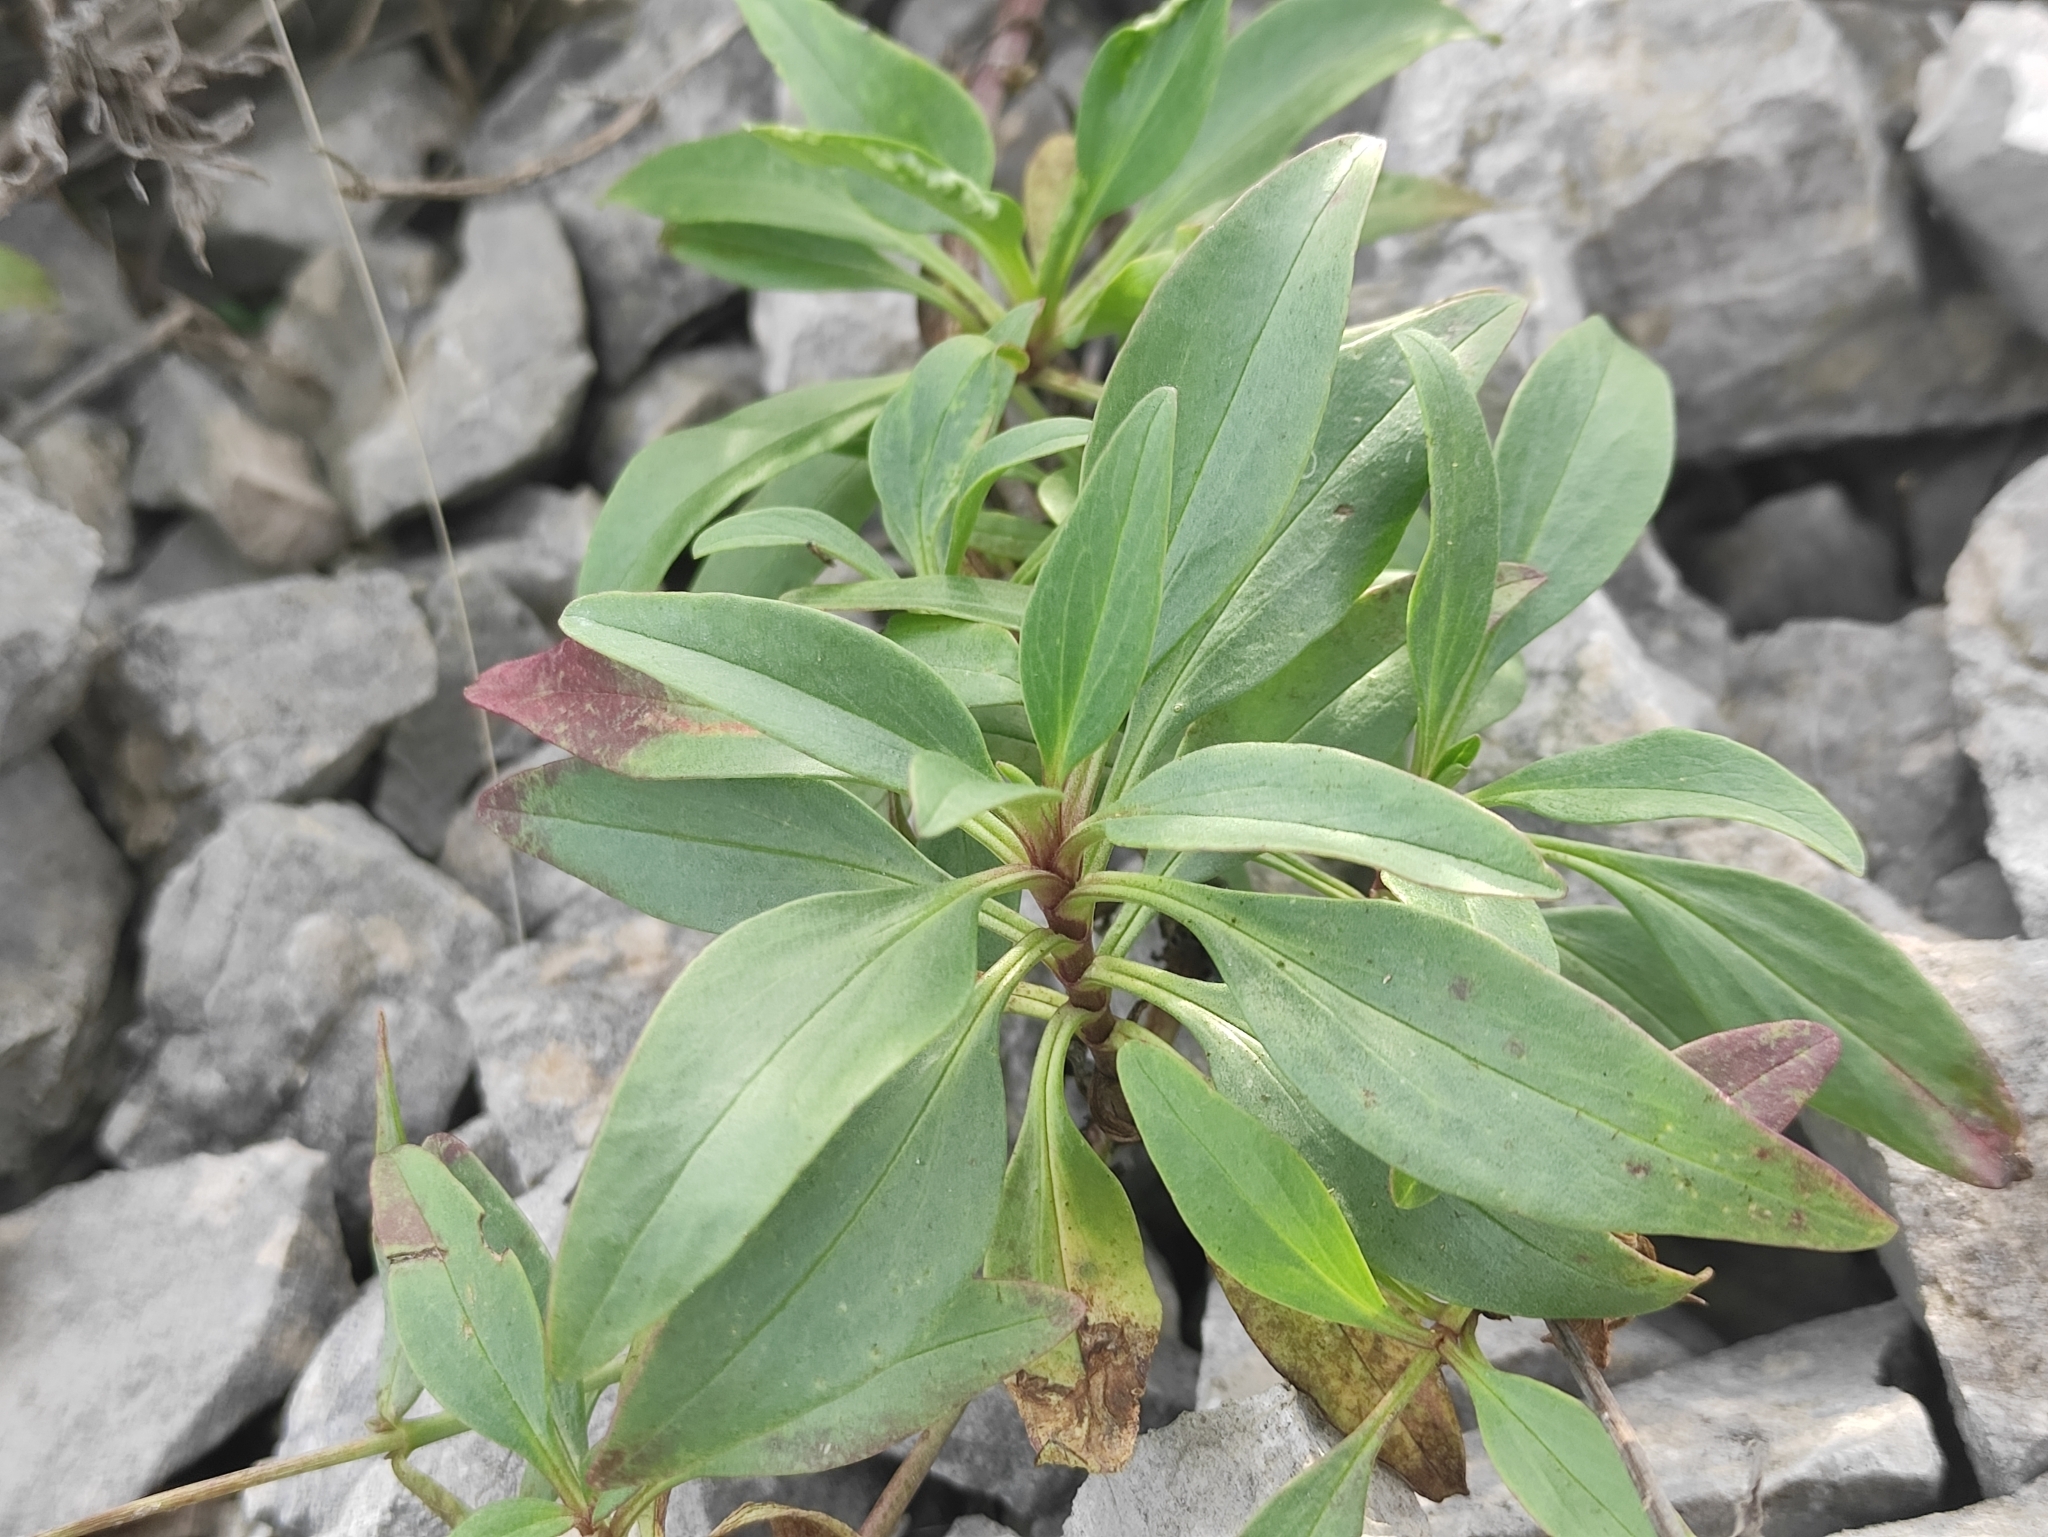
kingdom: Plantae
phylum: Tracheophyta
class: Magnoliopsida
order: Dipsacales
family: Caprifoliaceae
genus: Centranthus
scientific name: Centranthus ruber
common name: Red valerian
